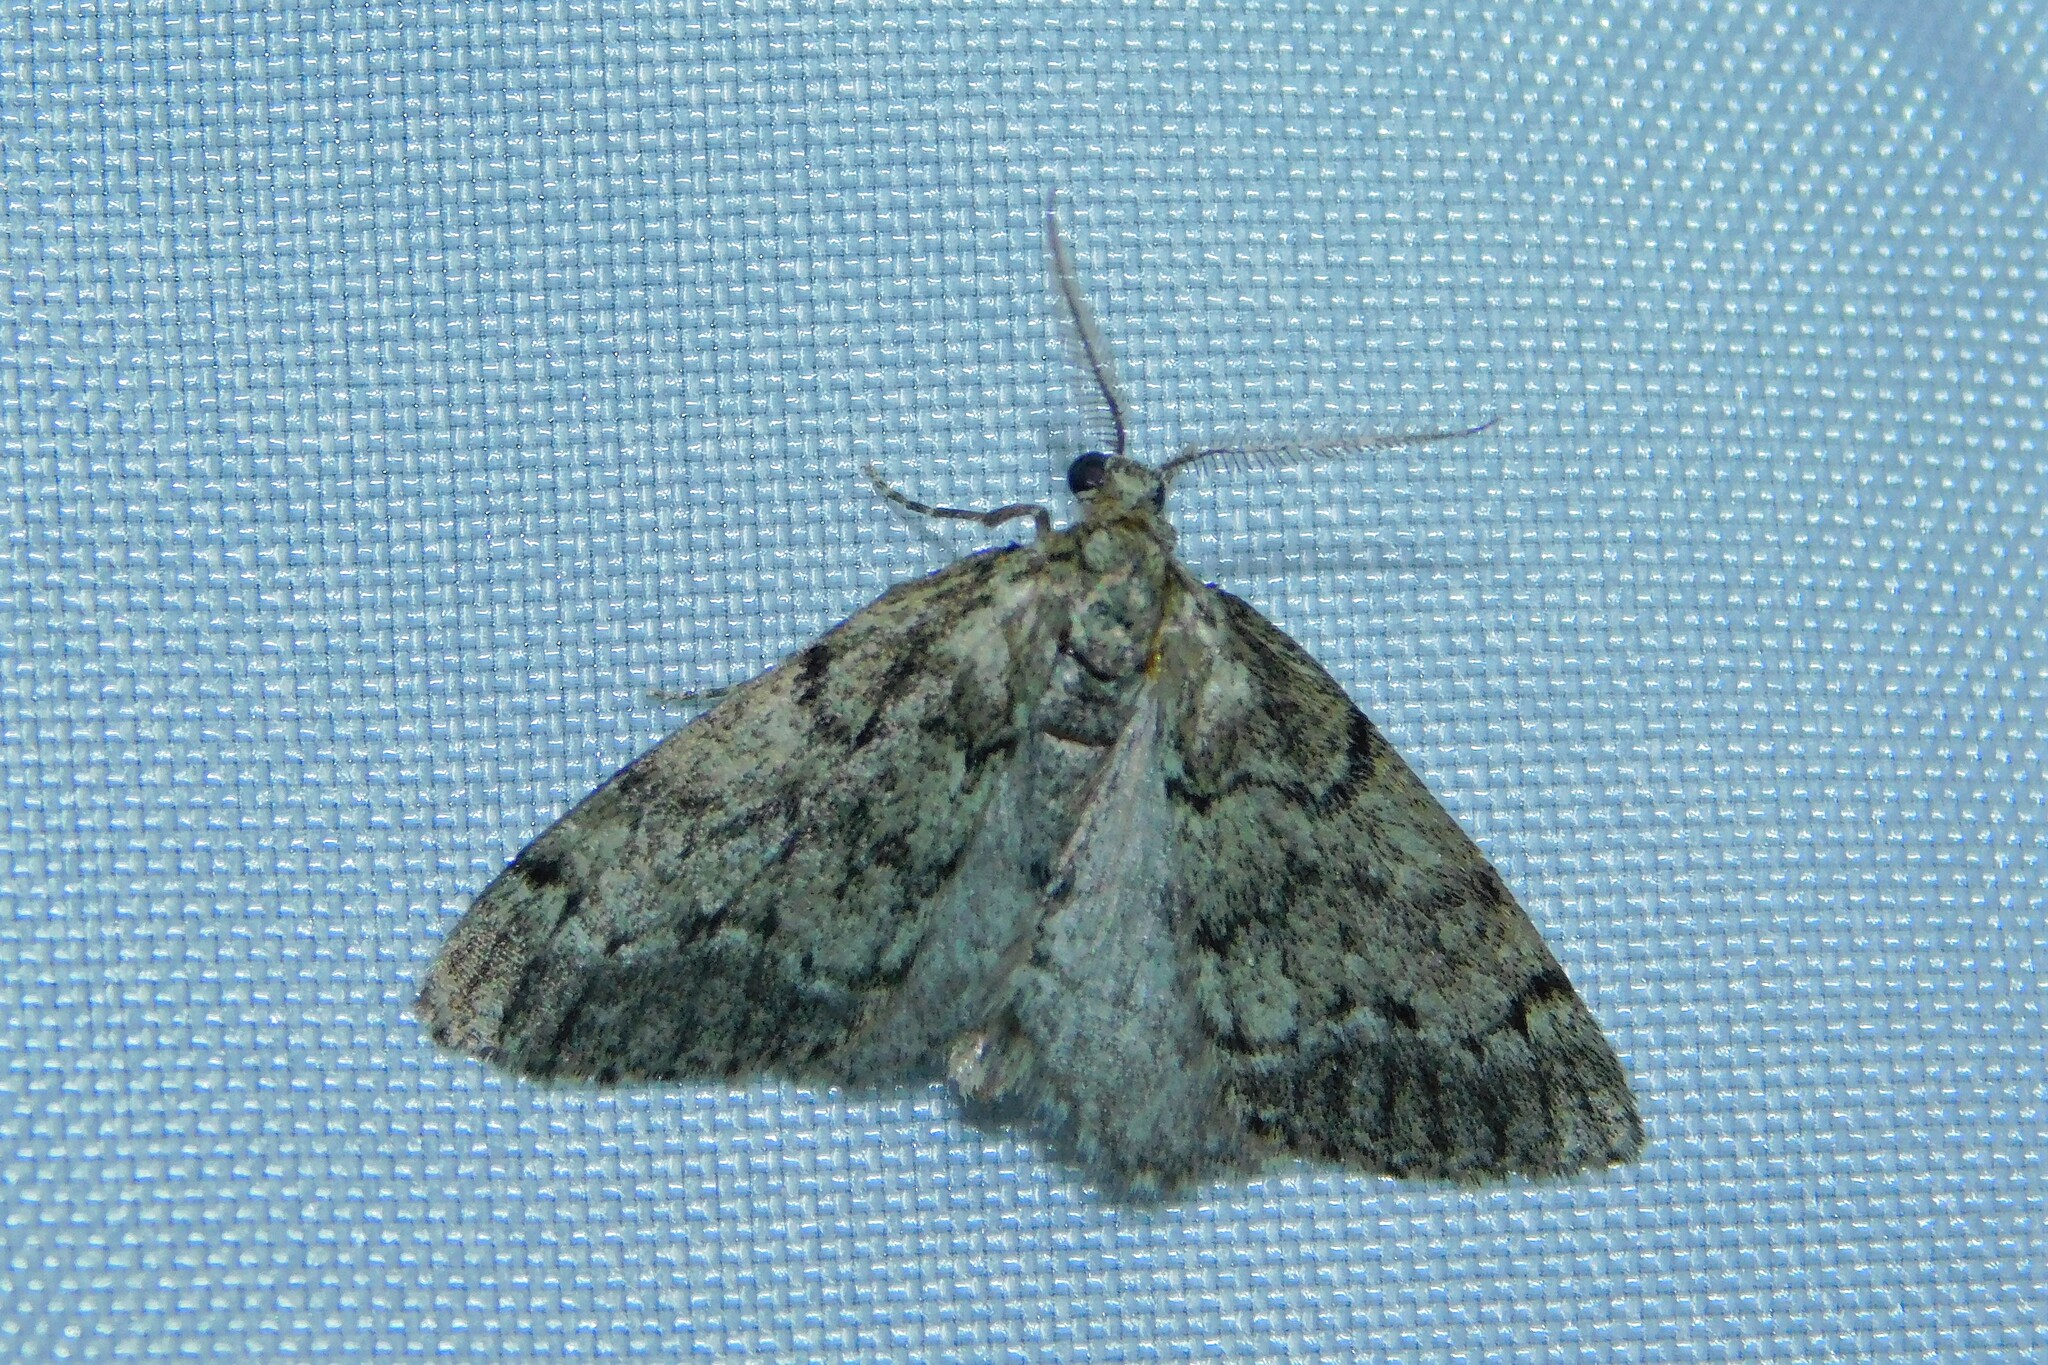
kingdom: Animalia
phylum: Arthropoda
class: Insecta
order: Lepidoptera
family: Geometridae
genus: Tephronia
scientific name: Tephronia sepiaria
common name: Dusky carpet
